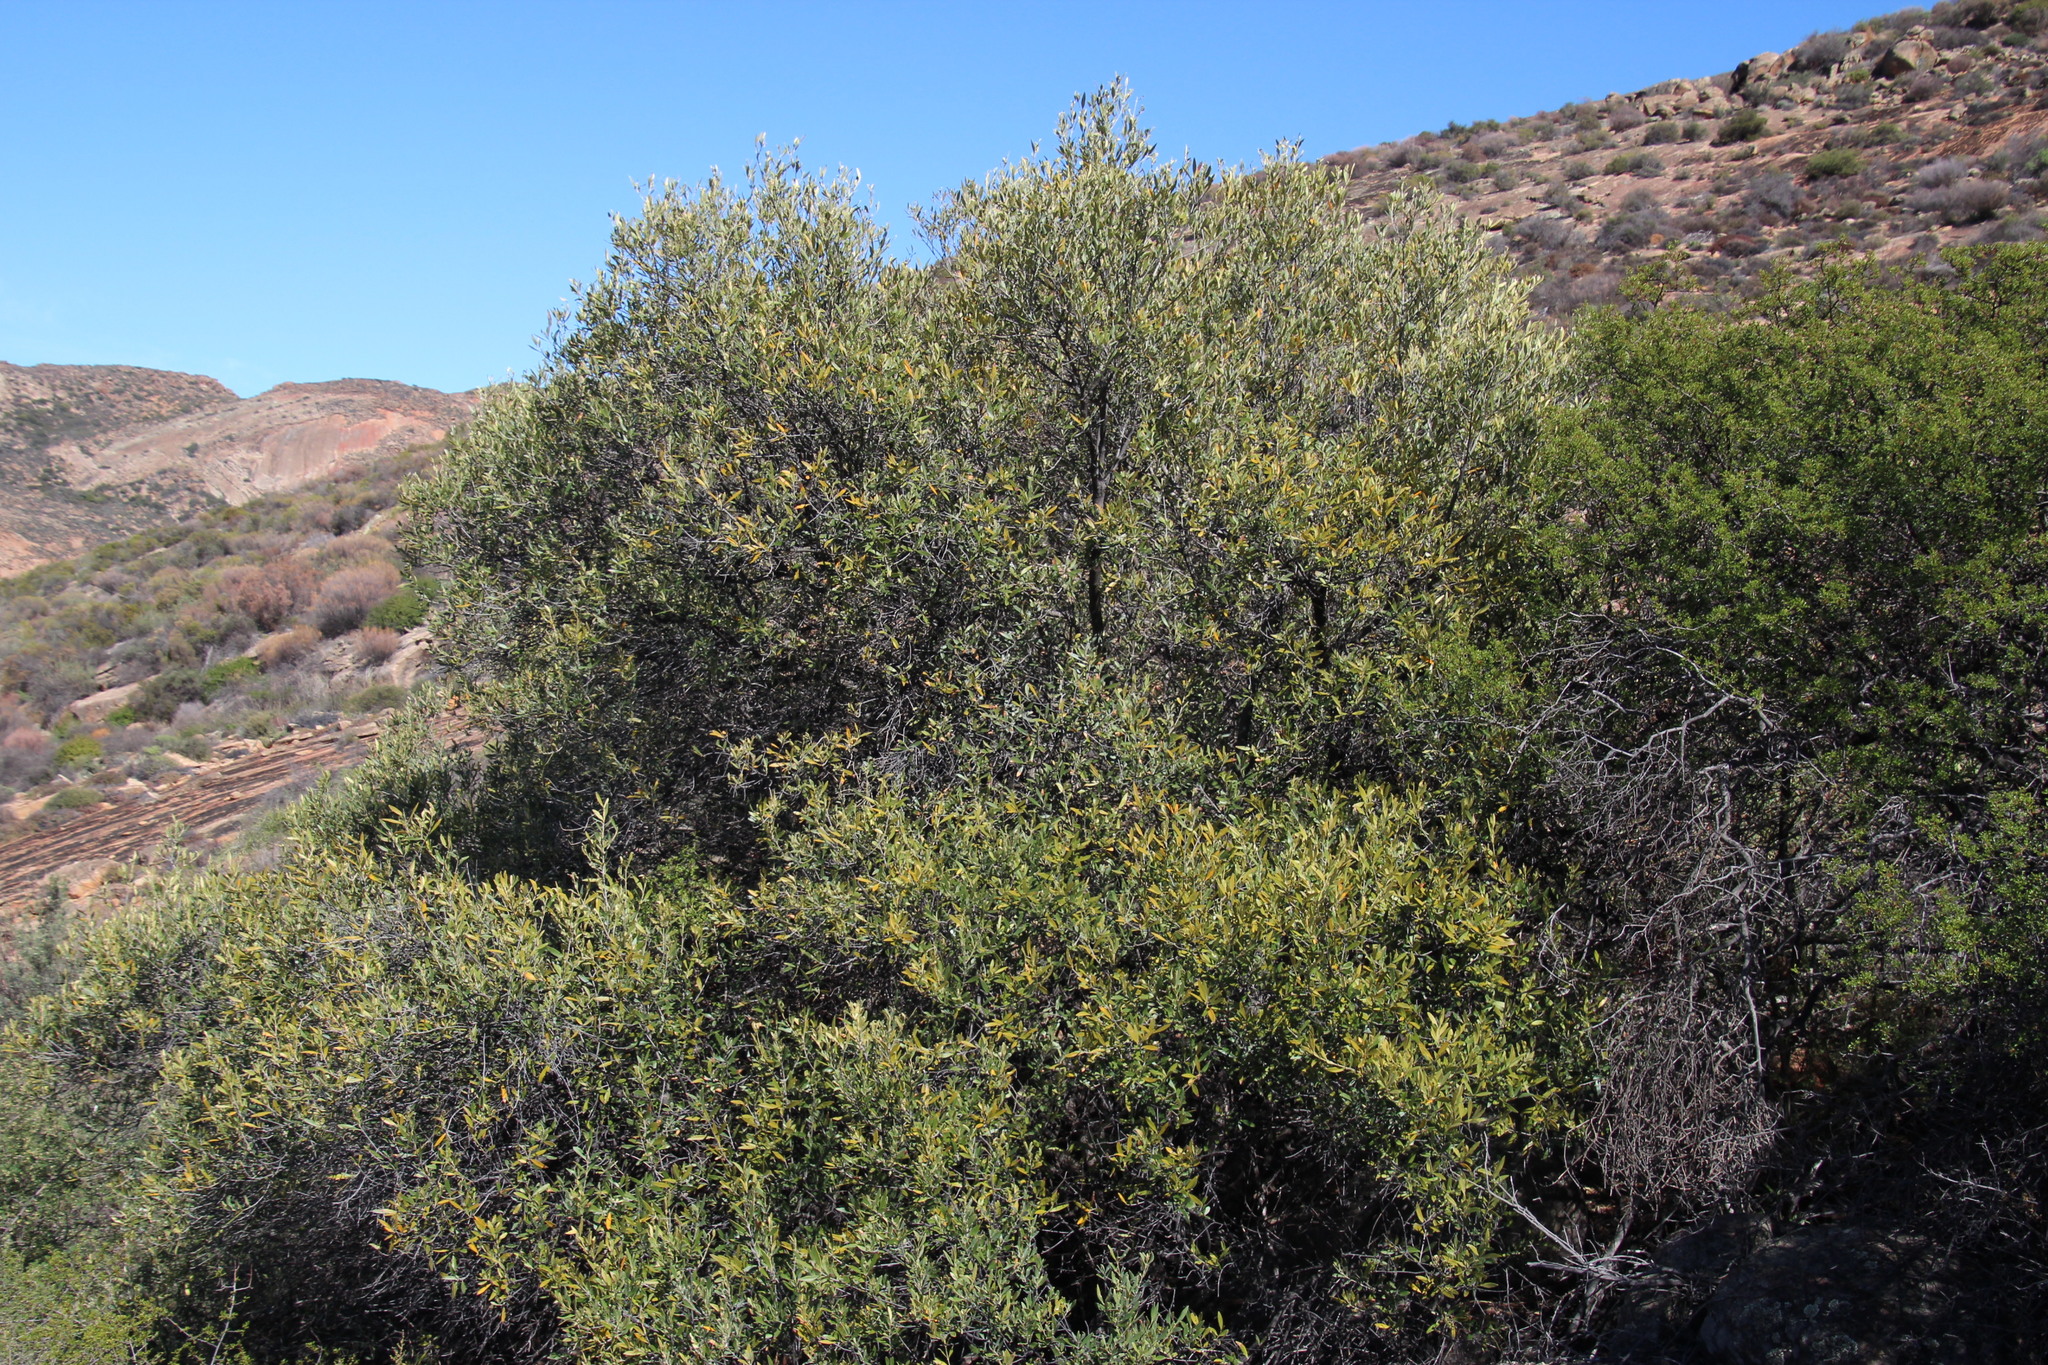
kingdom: Plantae
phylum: Tracheophyta
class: Magnoliopsida
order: Lamiales
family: Oleaceae
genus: Olea
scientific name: Olea europaea
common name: Olive
